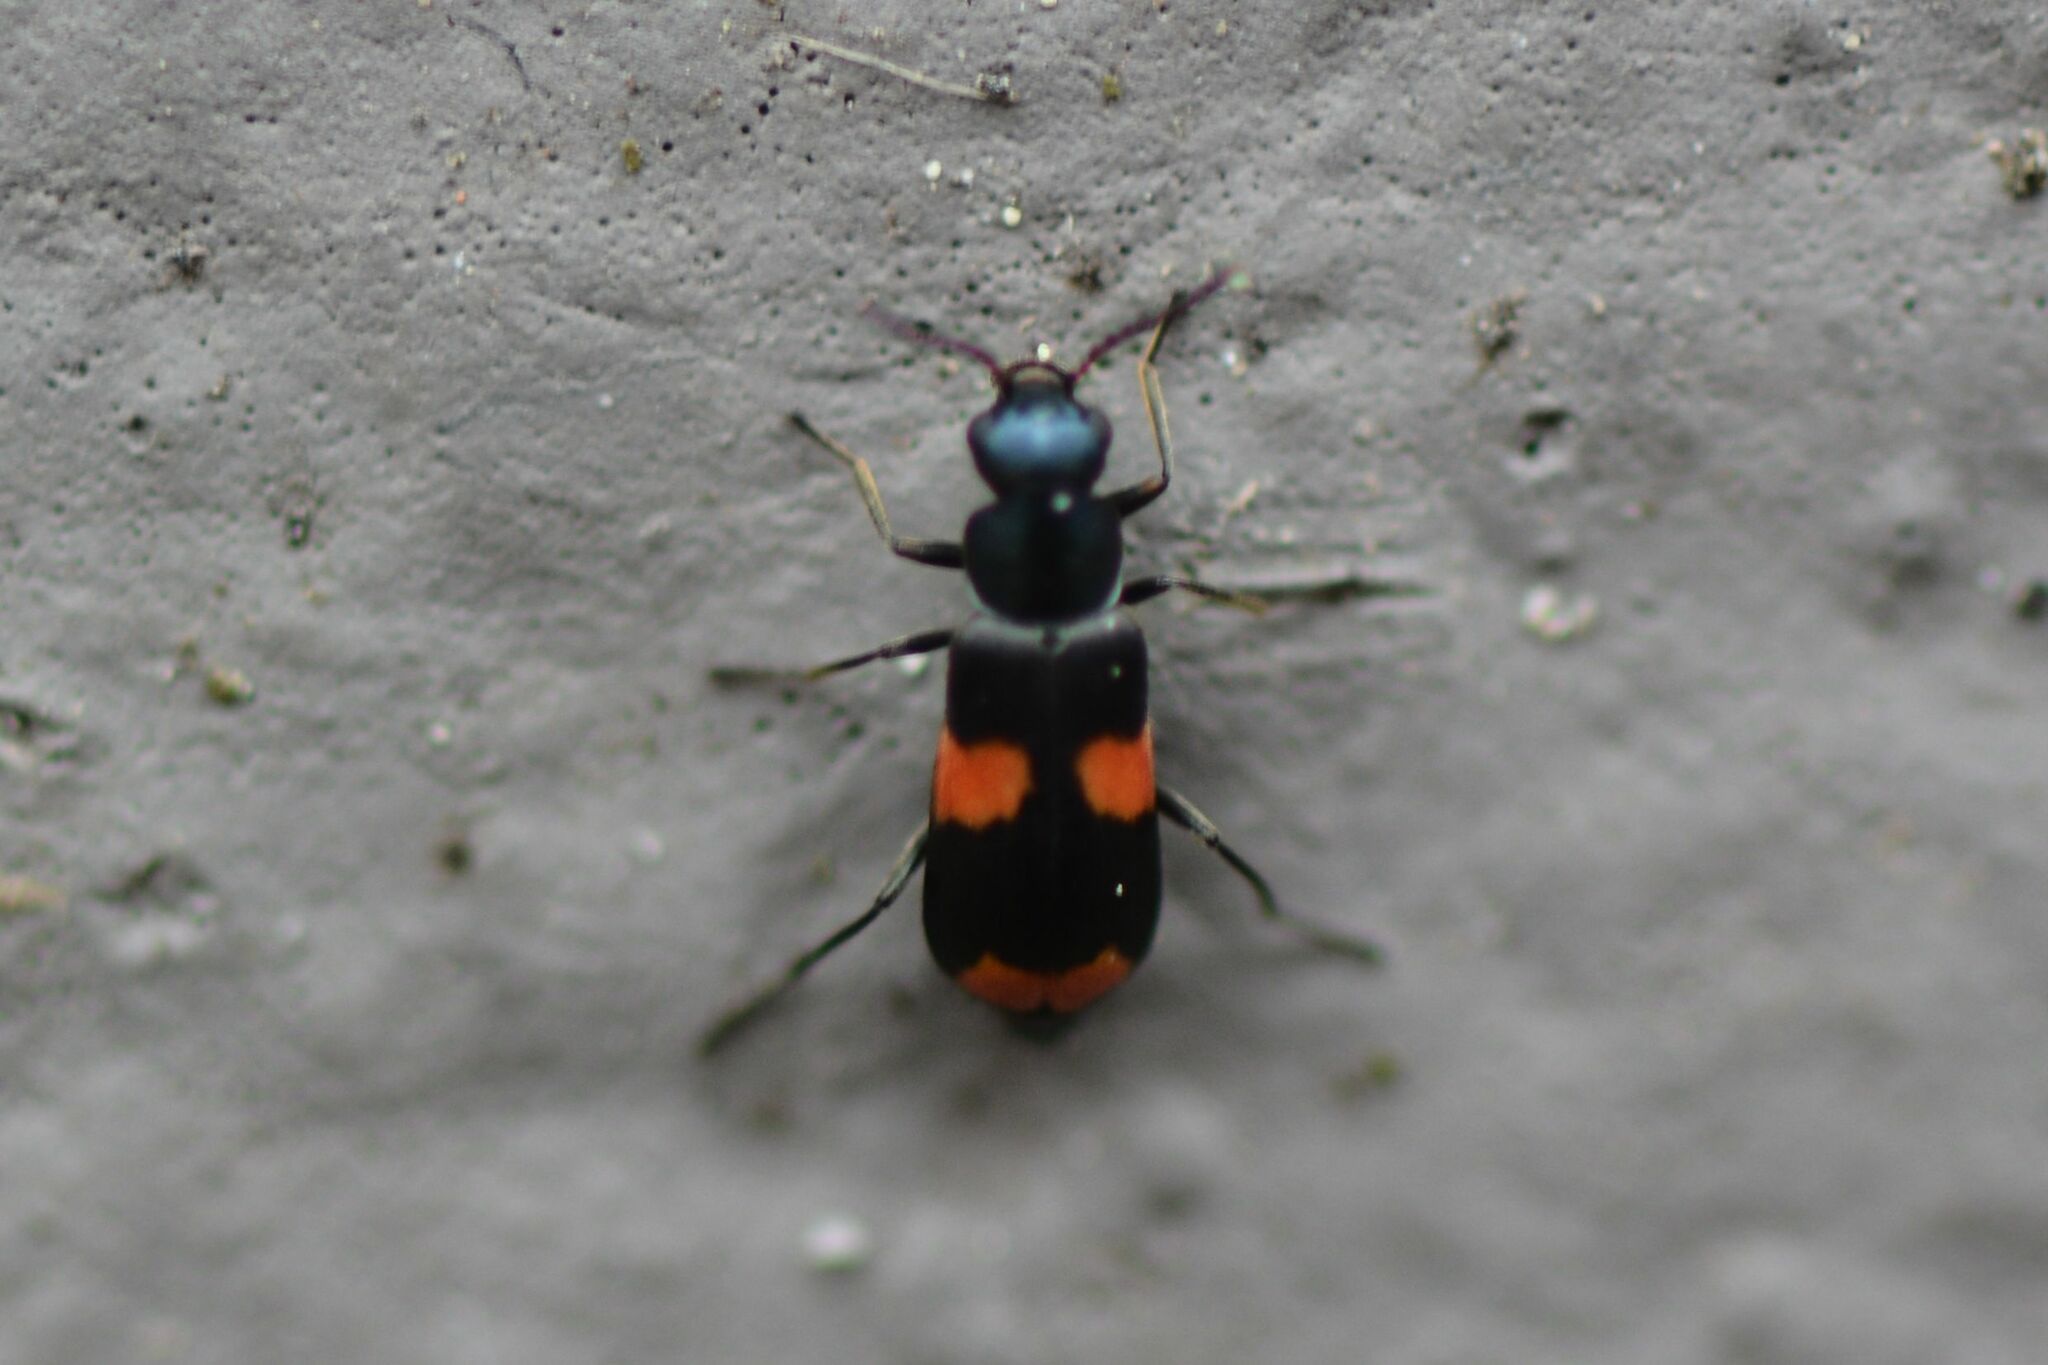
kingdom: Animalia
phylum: Arthropoda
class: Insecta
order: Coleoptera
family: Melyridae
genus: Anthocomus
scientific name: Anthocomus fasciatus
